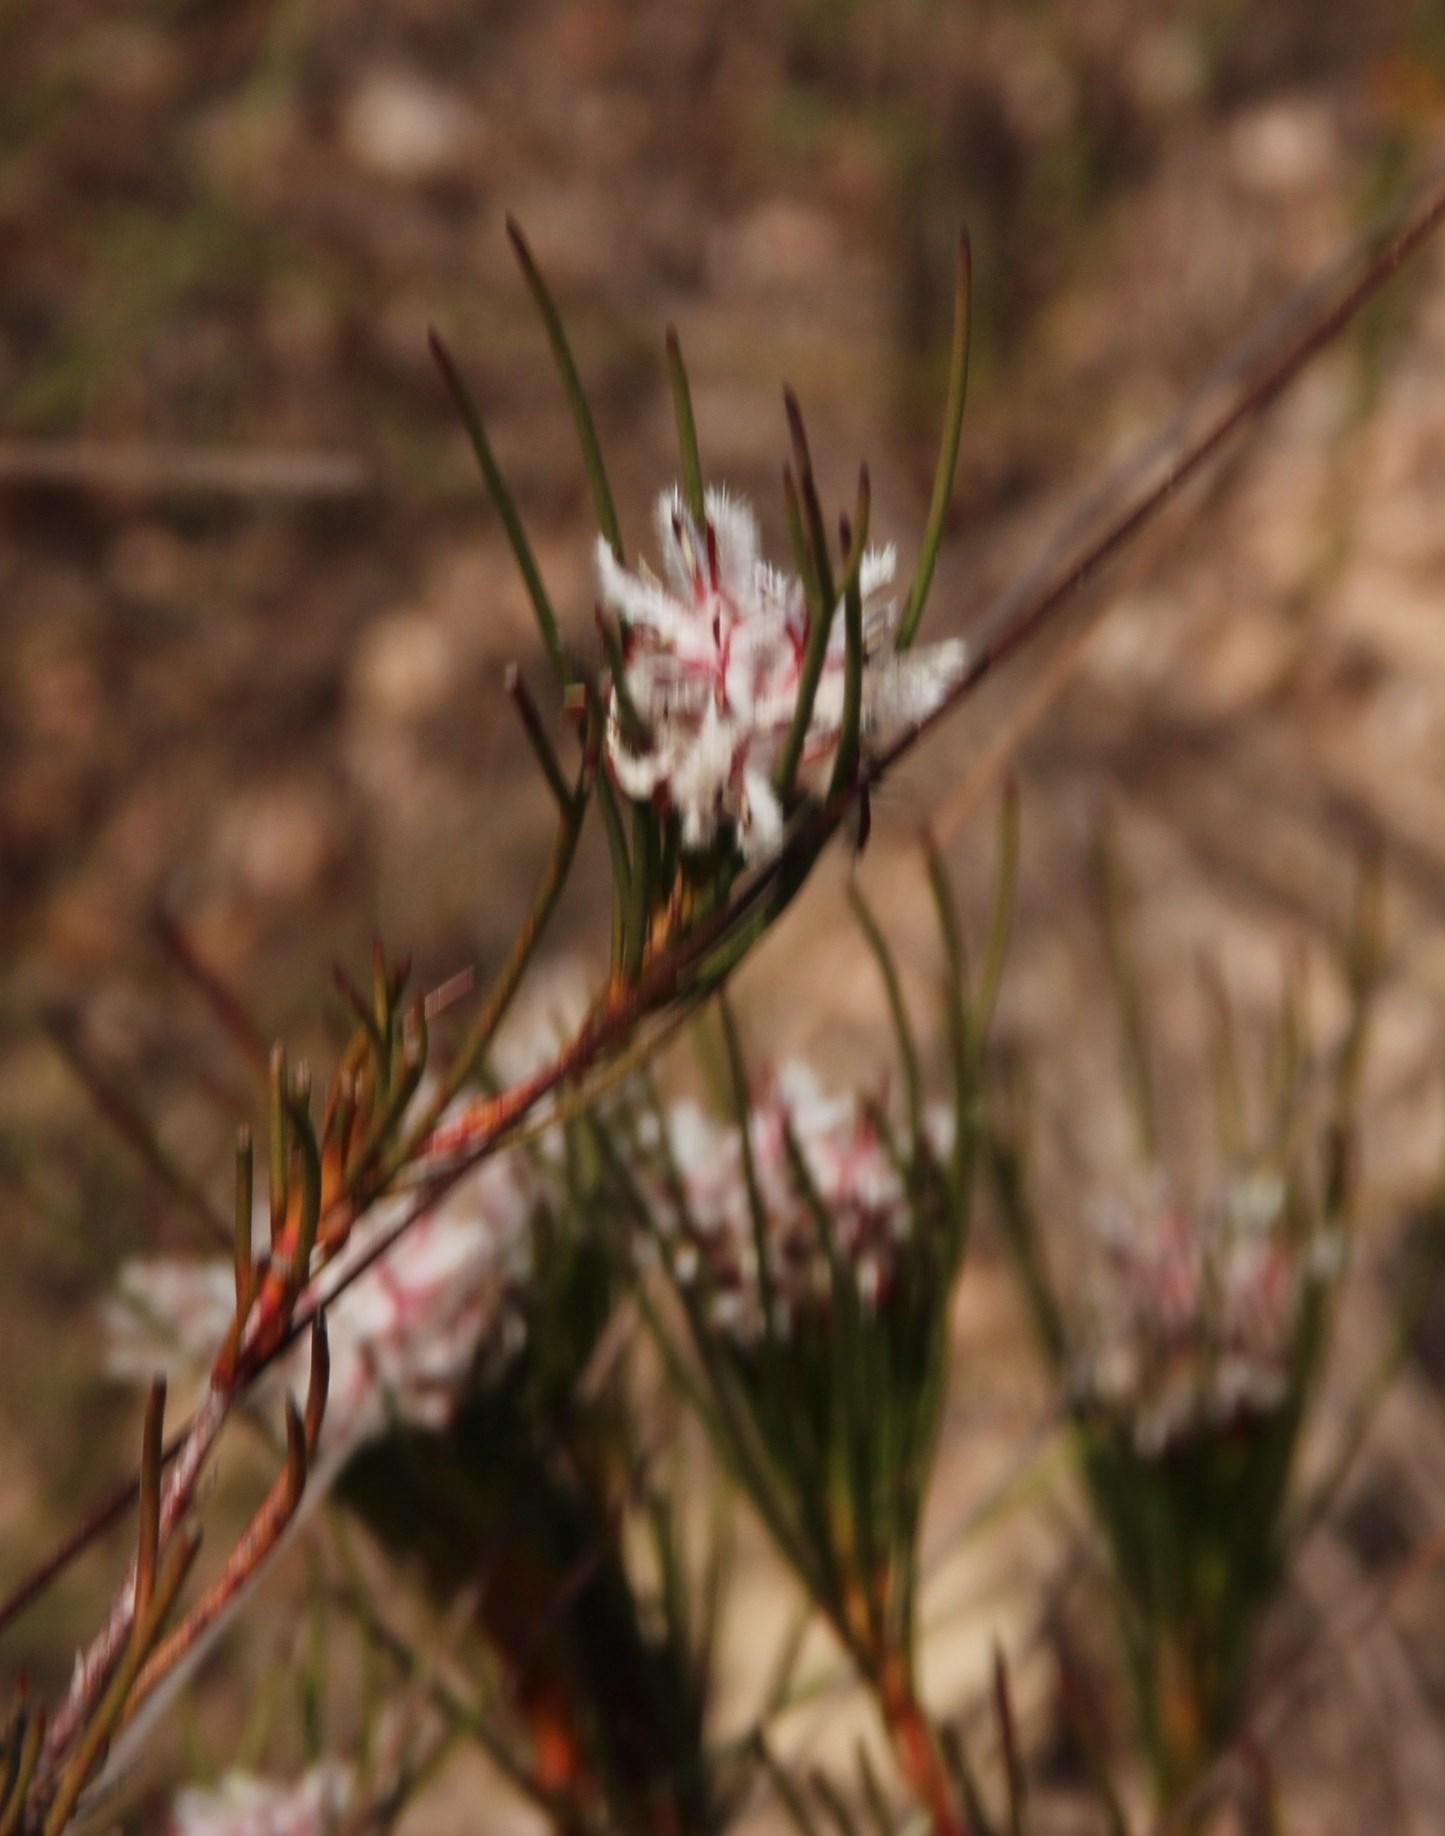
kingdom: Plantae
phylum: Tracheophyta
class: Magnoliopsida
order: Proteales
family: Proteaceae
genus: Serruria
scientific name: Serruria deluvialis
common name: Grass spiderhead
